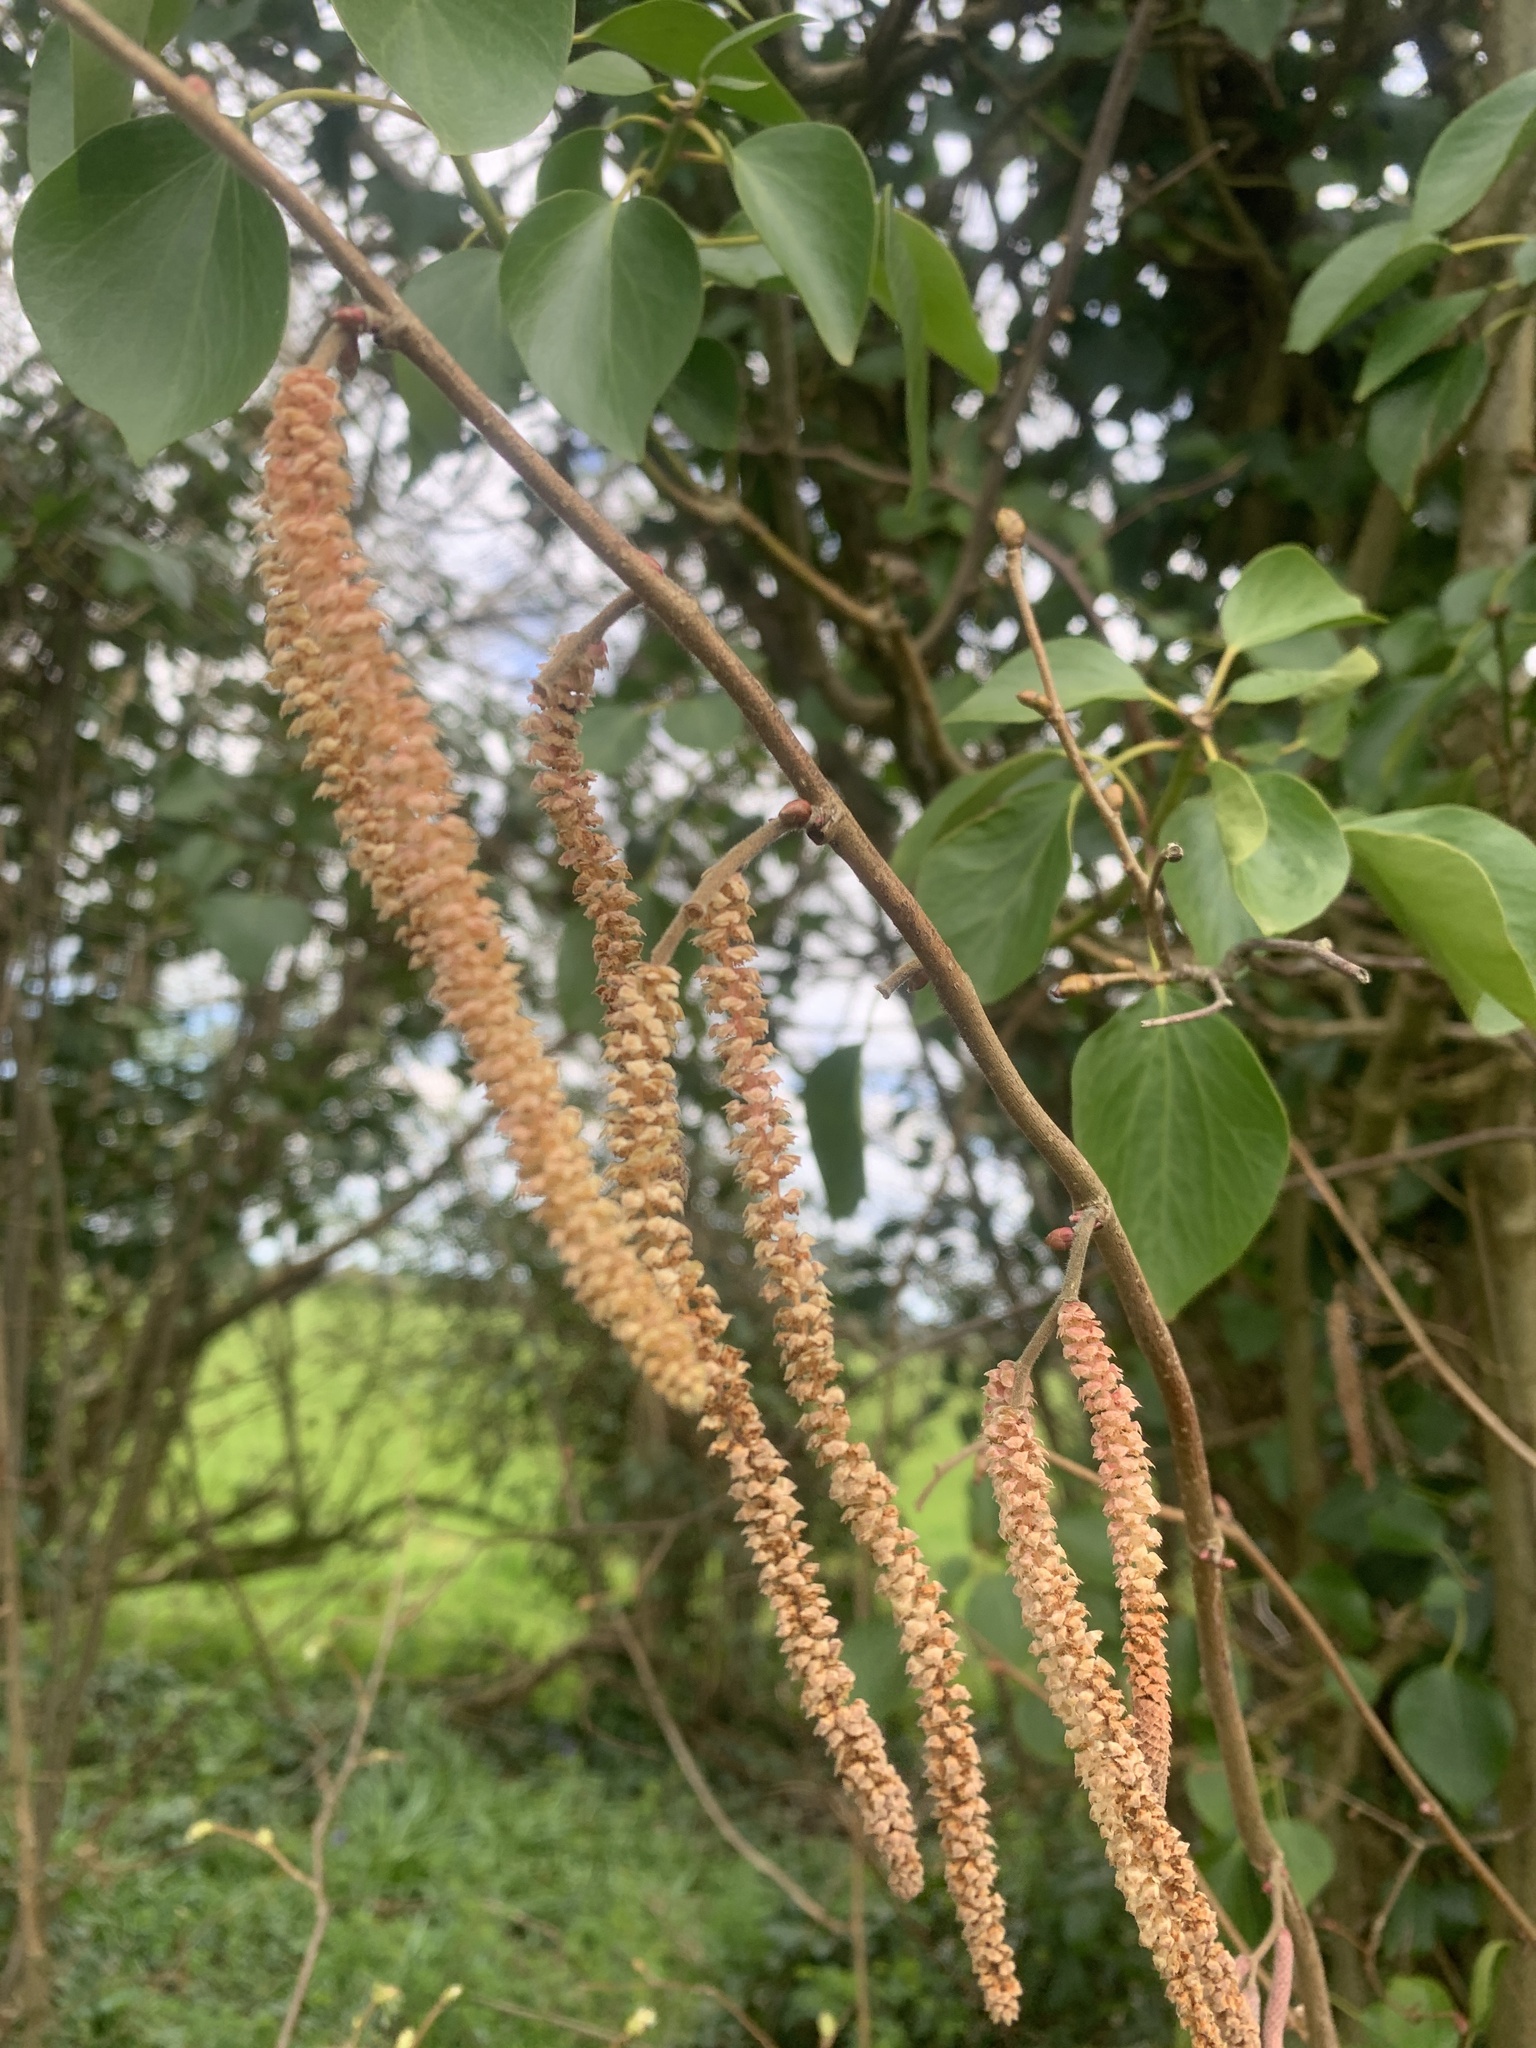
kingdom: Plantae
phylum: Tracheophyta
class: Magnoliopsida
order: Fagales
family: Betulaceae
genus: Corylus
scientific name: Corylus avellana
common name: European hazel
